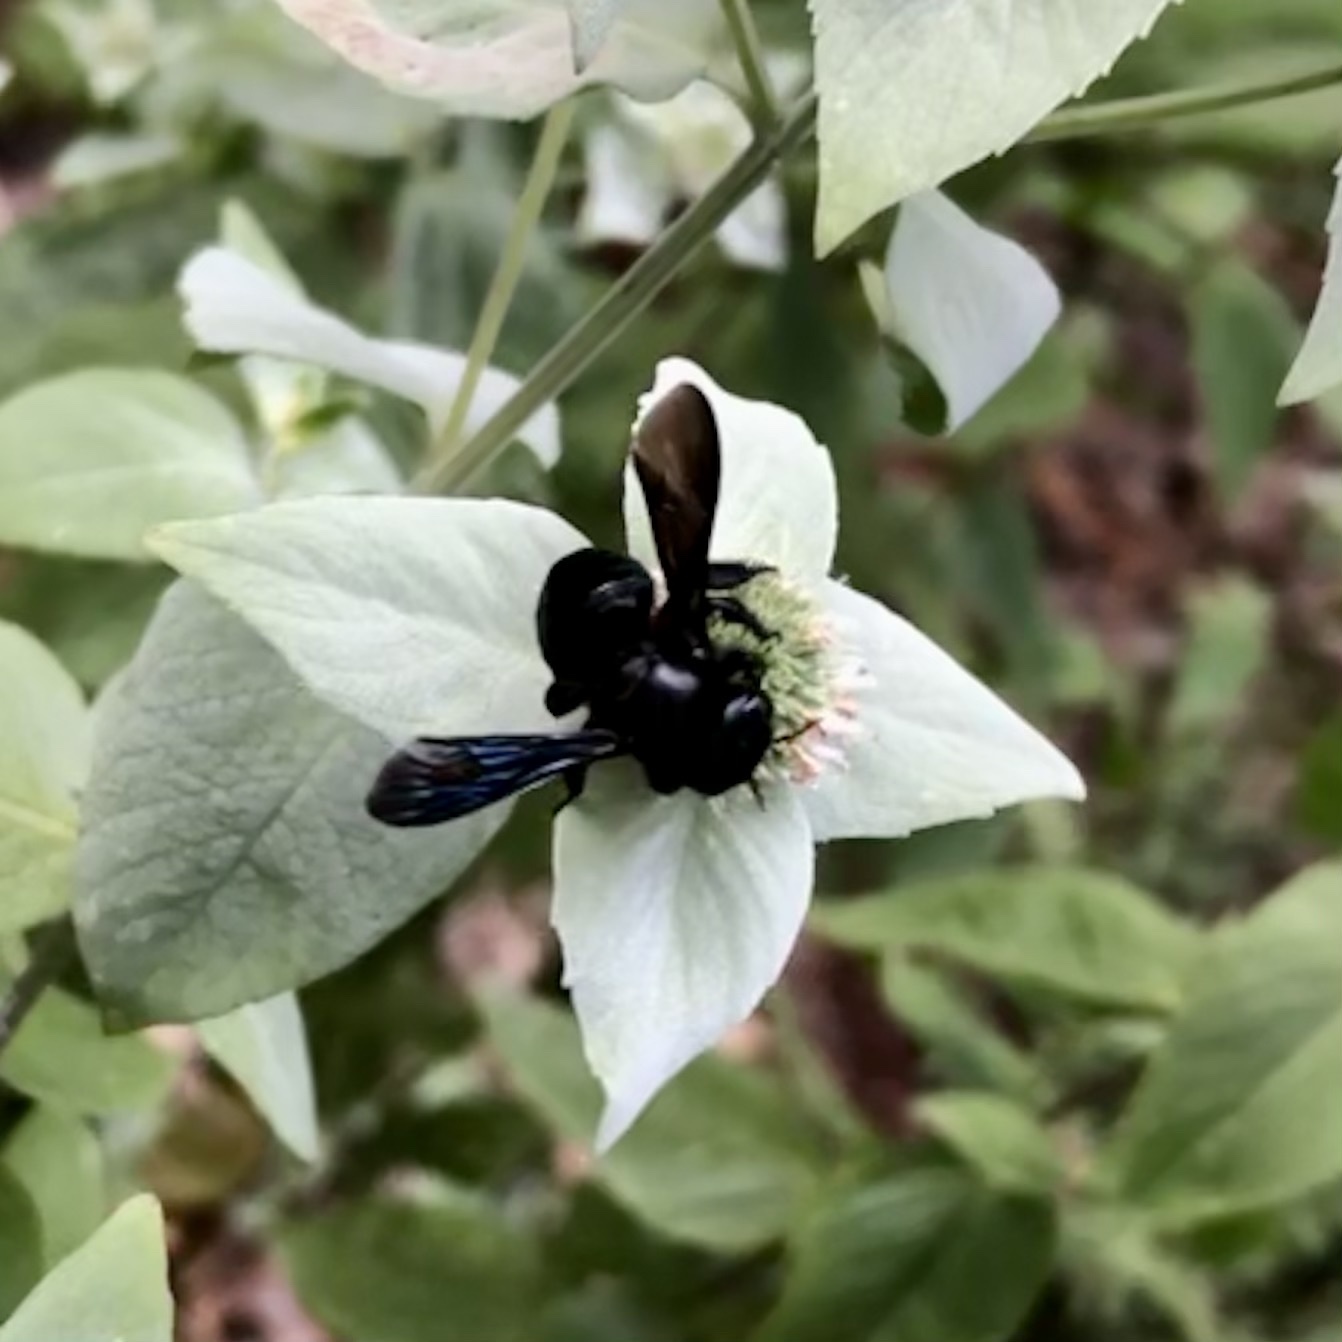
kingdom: Animalia
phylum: Arthropoda
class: Insecta
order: Hymenoptera
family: Megachilidae
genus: Megachile
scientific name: Megachile xylocopoides
